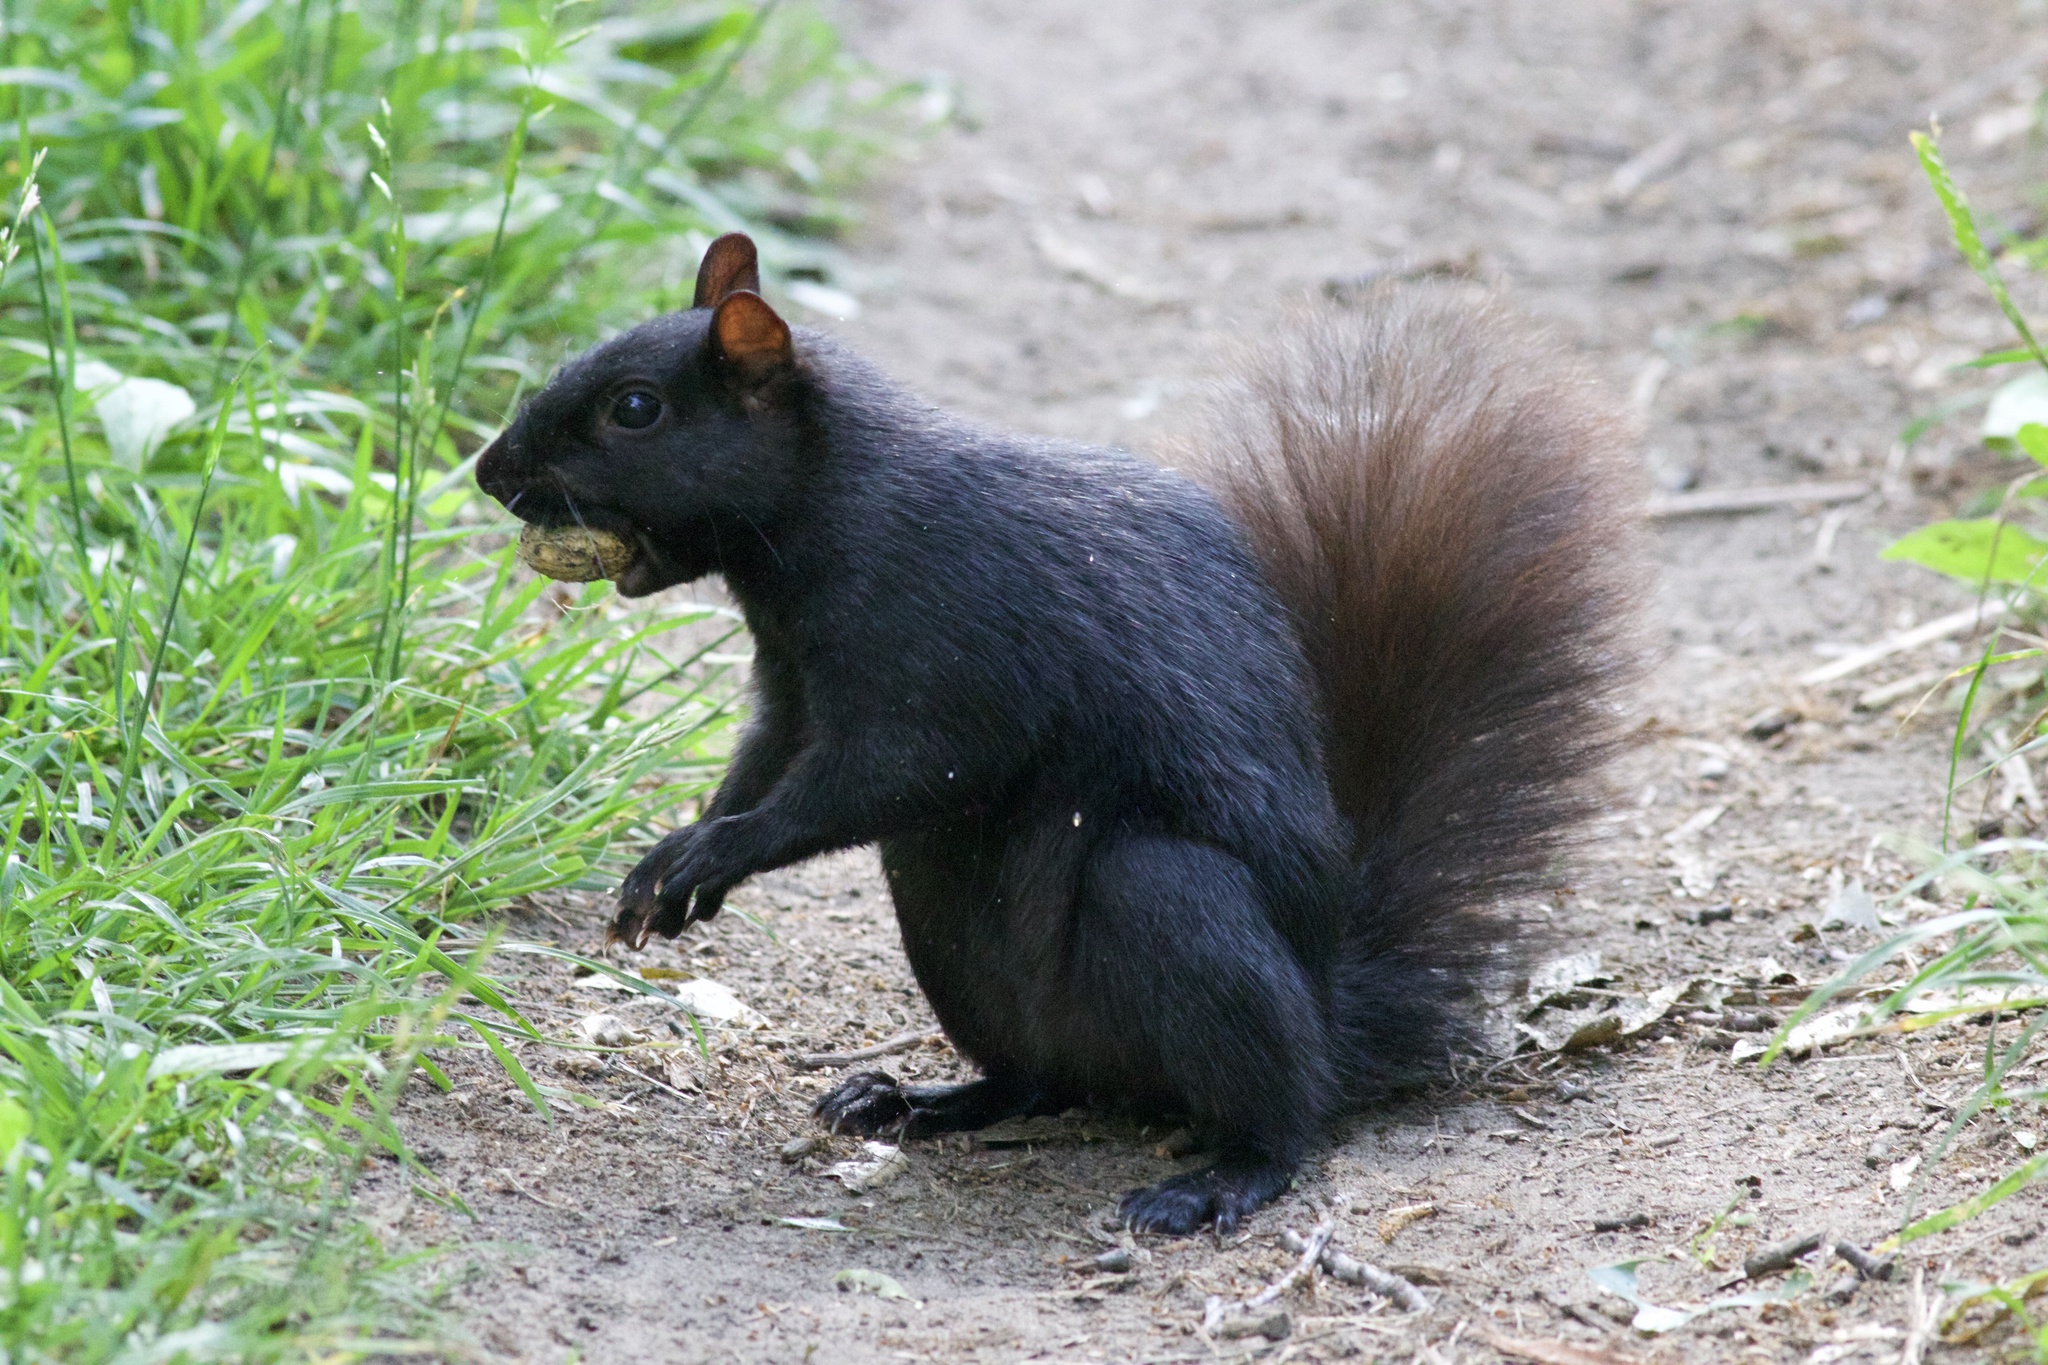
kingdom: Animalia
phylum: Chordata
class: Mammalia
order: Rodentia
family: Sciuridae
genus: Sciurus
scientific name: Sciurus carolinensis
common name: Eastern gray squirrel
